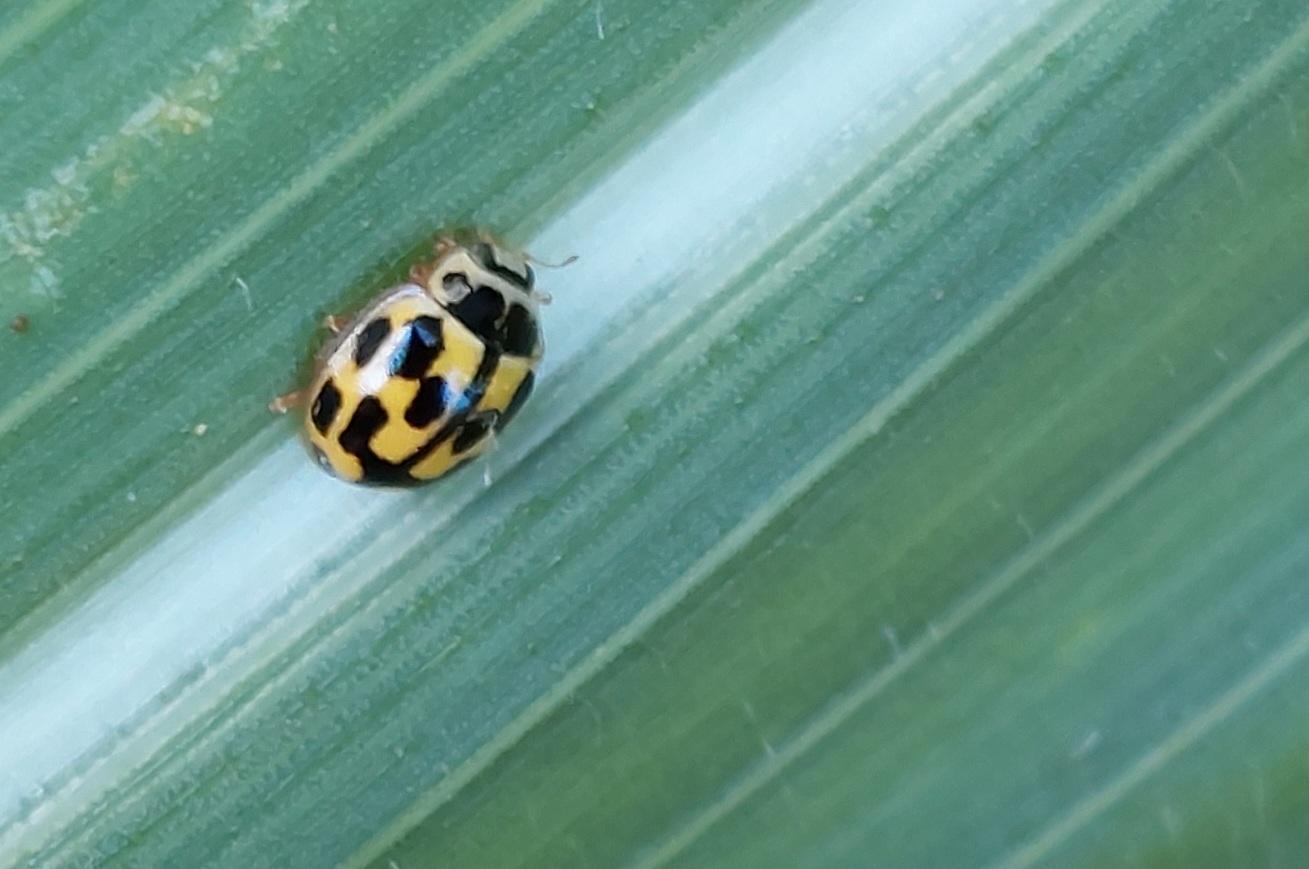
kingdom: Animalia
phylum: Arthropoda
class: Insecta
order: Coleoptera
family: Coccinellidae
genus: Propylaea
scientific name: Propylaea quatuordecimpunctata
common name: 14-spotted ladybird beetle
